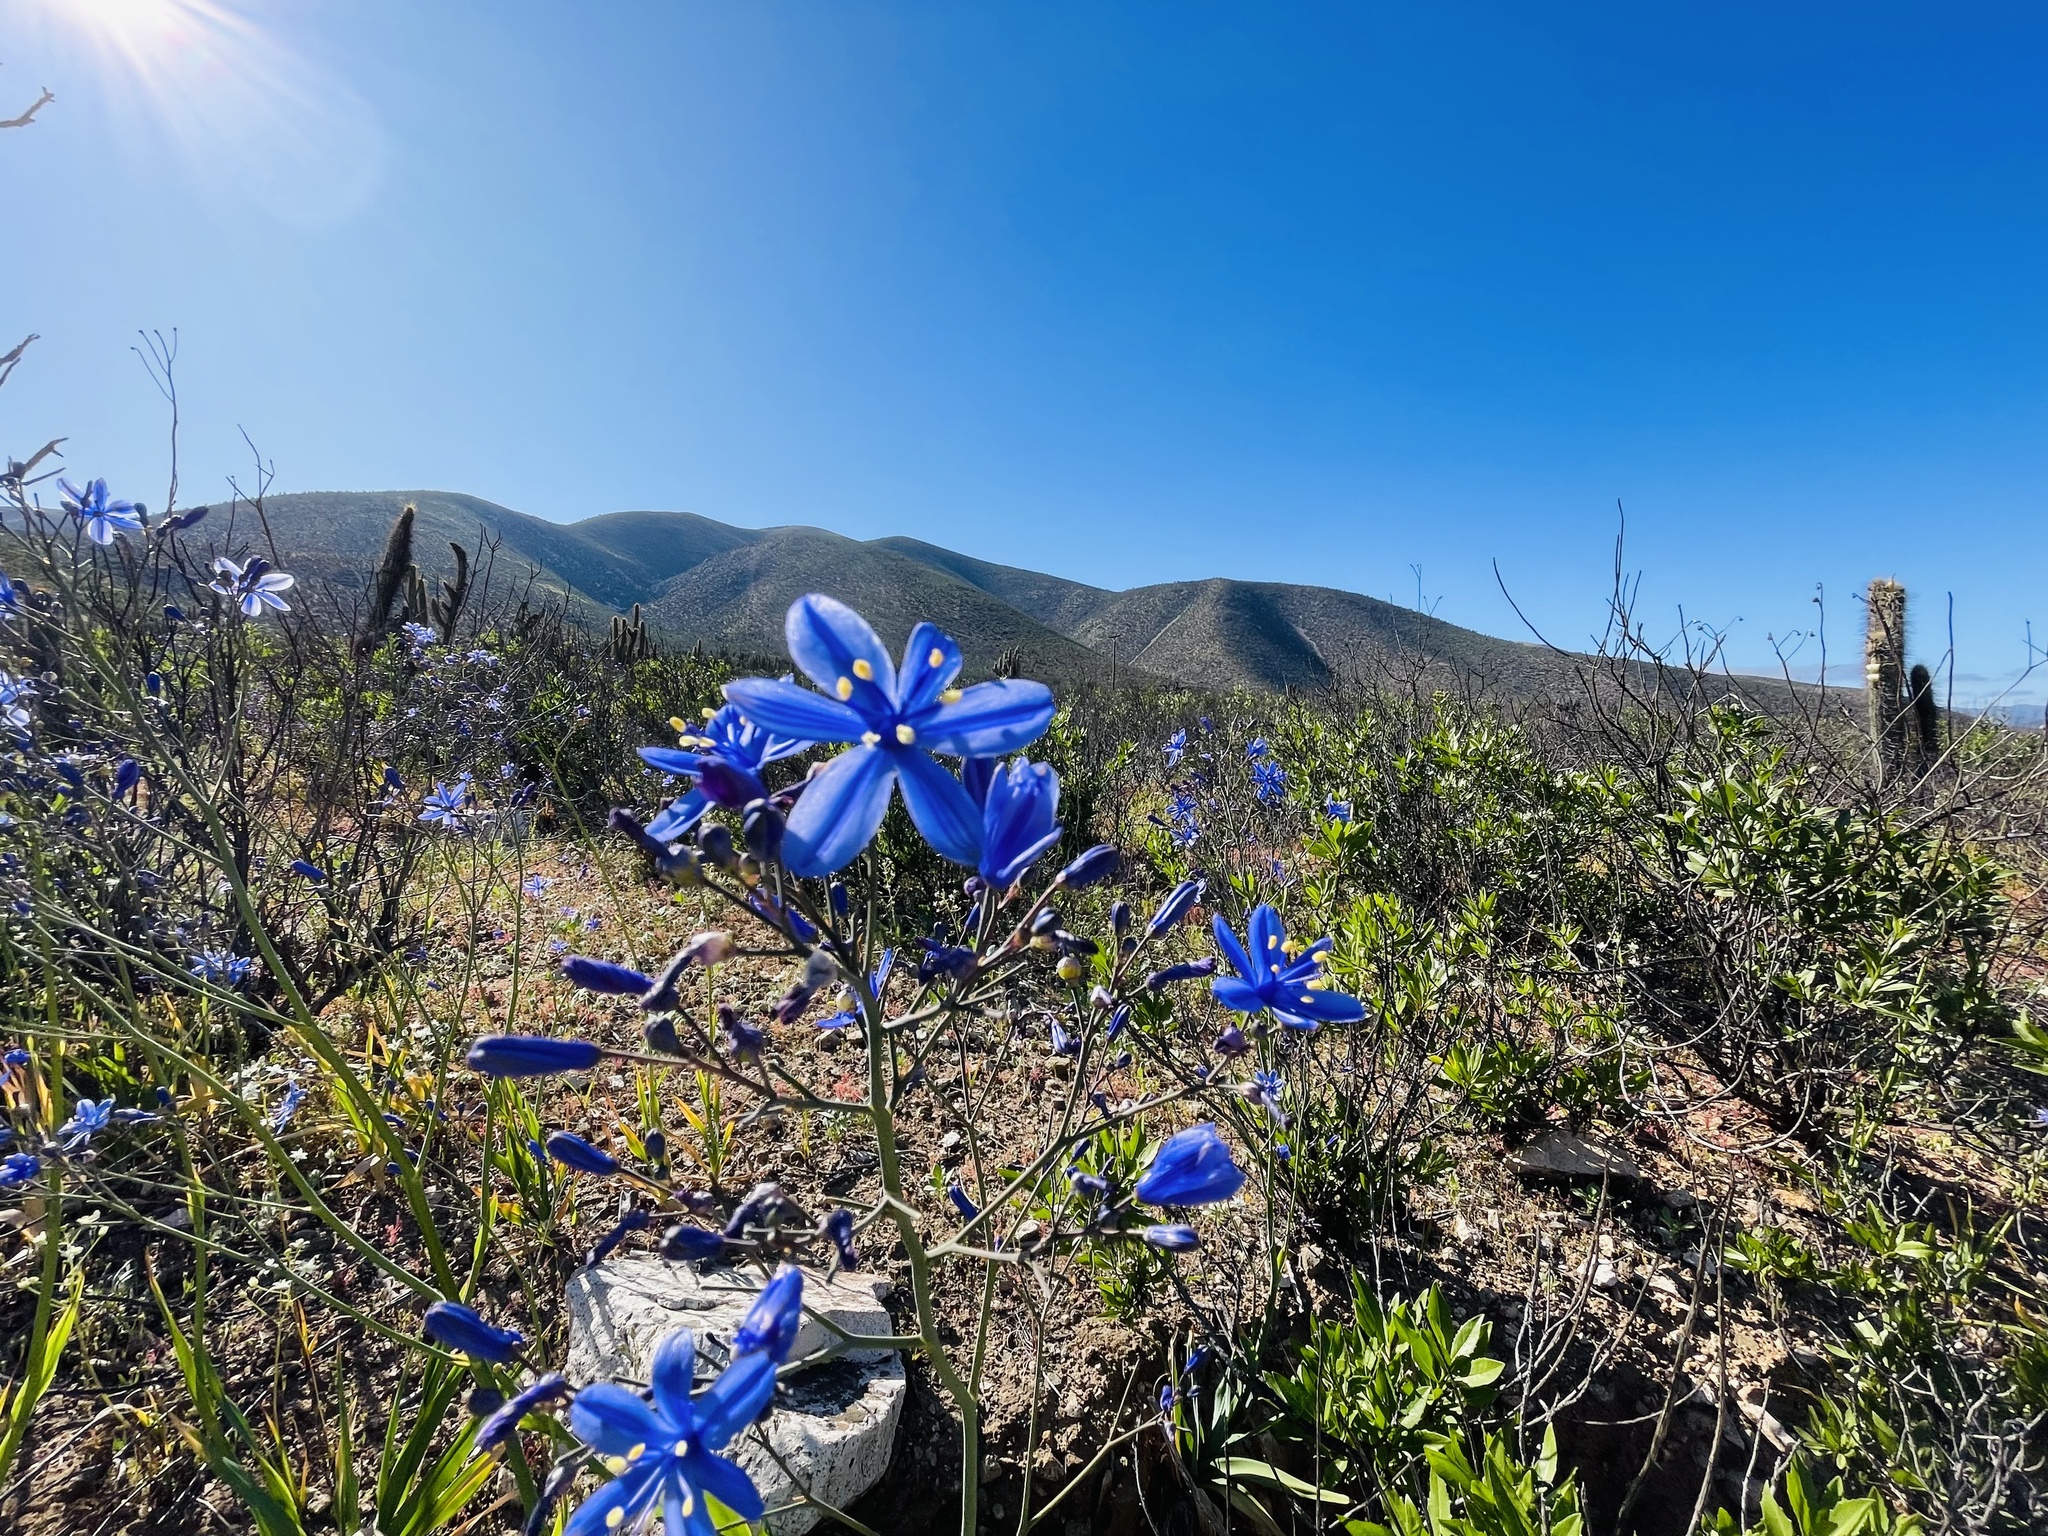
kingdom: Plantae
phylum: Tracheophyta
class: Liliopsida
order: Asparagales
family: Asphodelaceae
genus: Pasithea
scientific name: Pasithea caerulea
